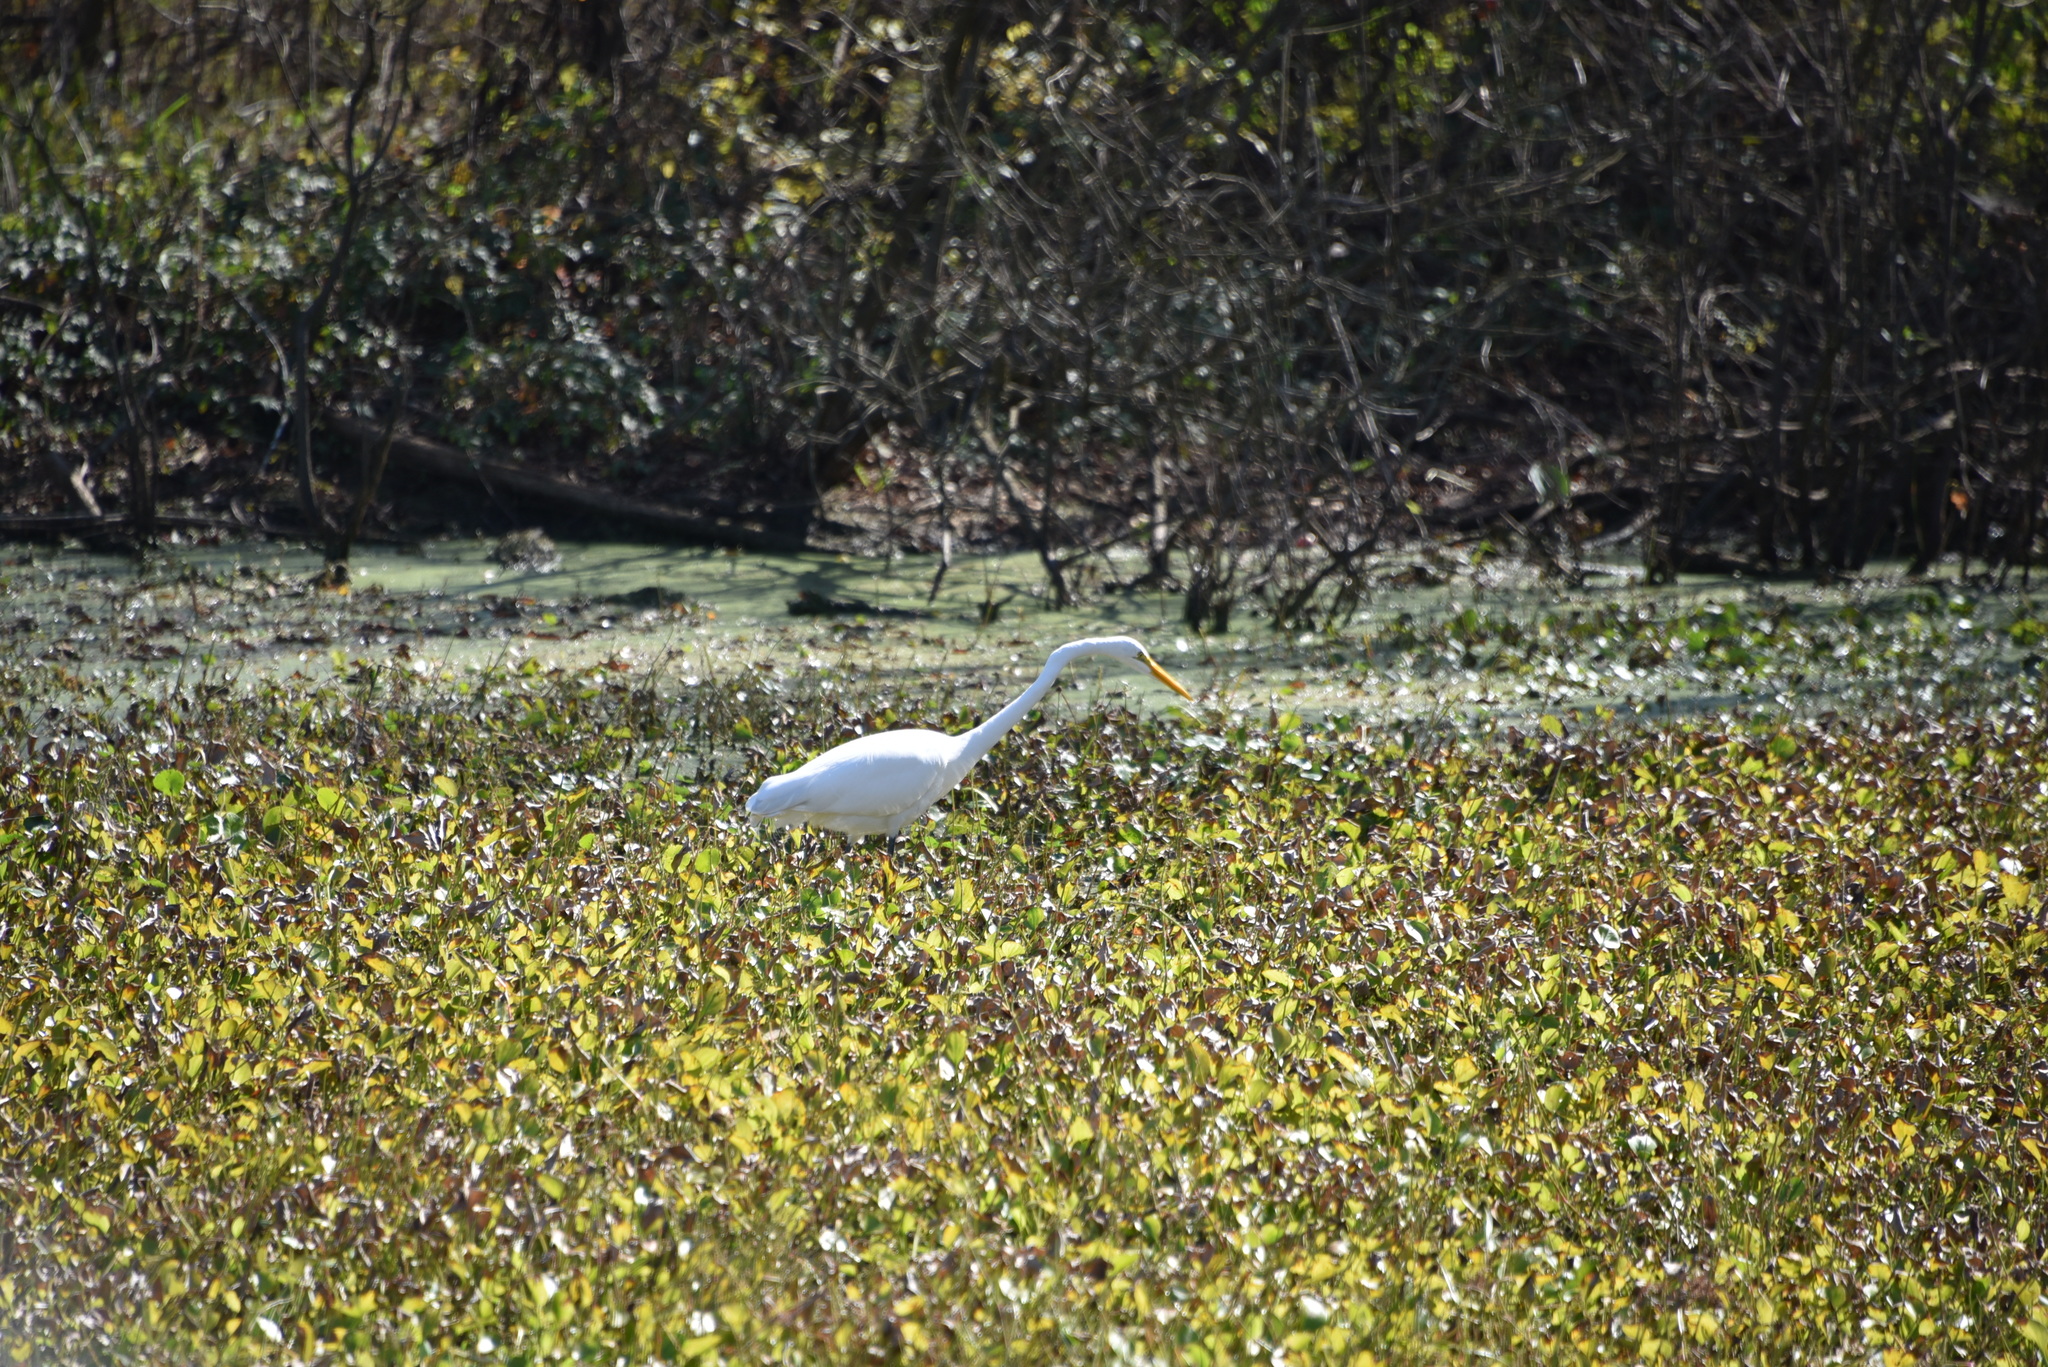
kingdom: Animalia
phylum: Chordata
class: Aves
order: Pelecaniformes
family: Ardeidae
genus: Ardea
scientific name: Ardea alba
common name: Great egret
